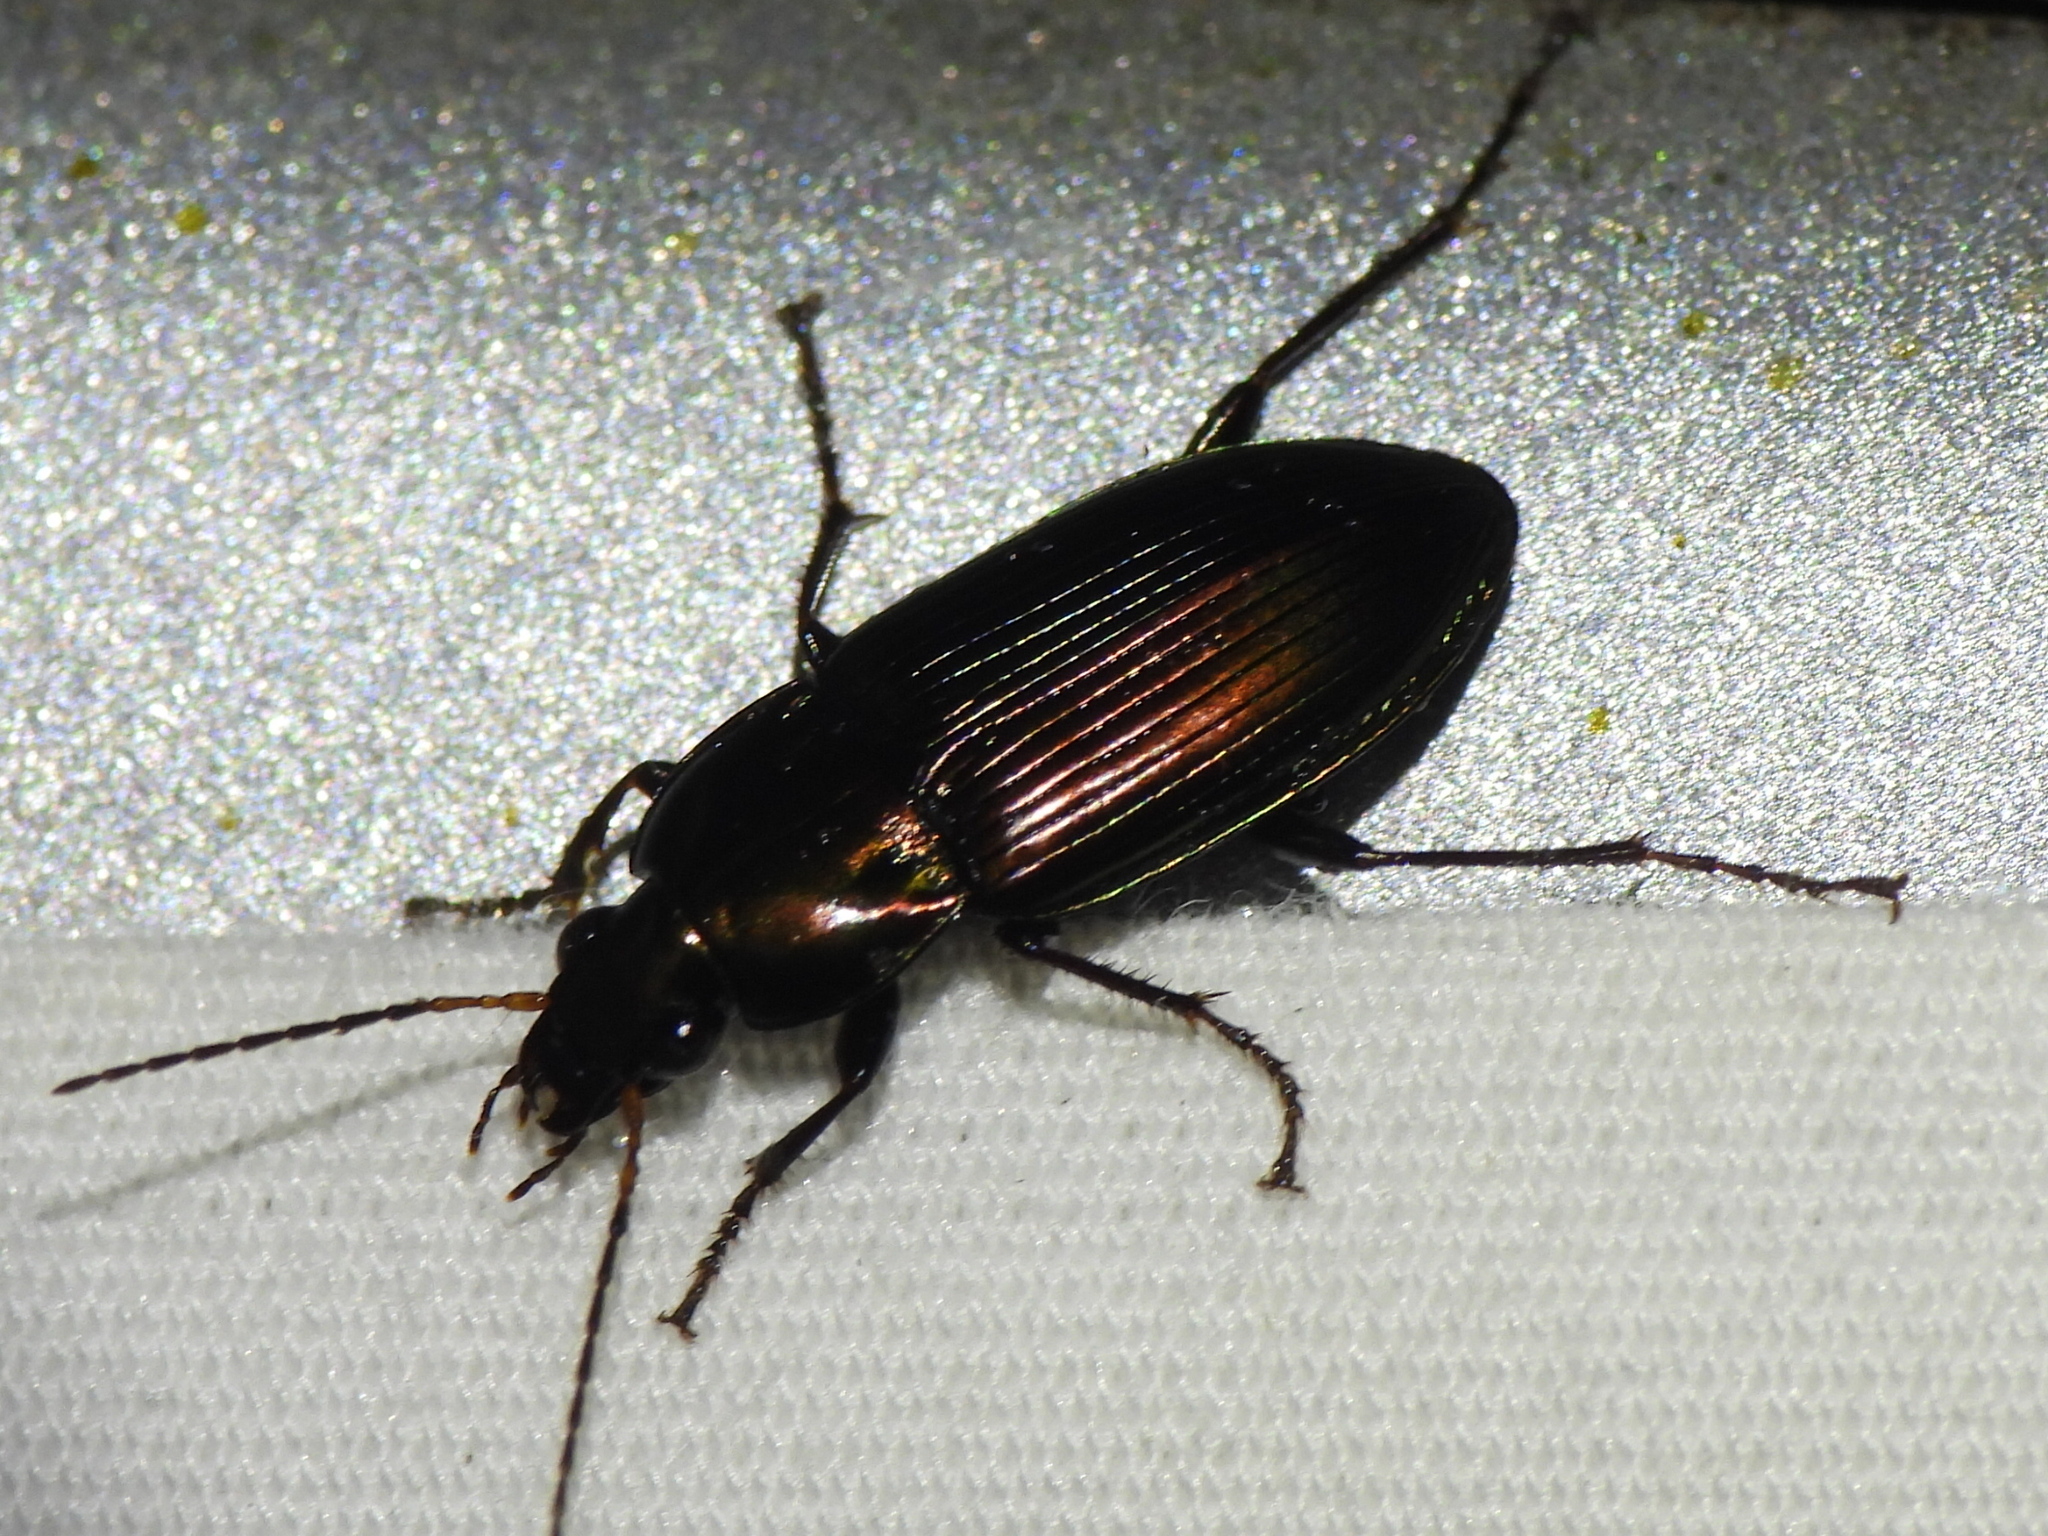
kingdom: Animalia
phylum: Arthropoda
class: Insecta
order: Coleoptera
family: Carabidae
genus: Poecilus
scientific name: Poecilus chalcites
